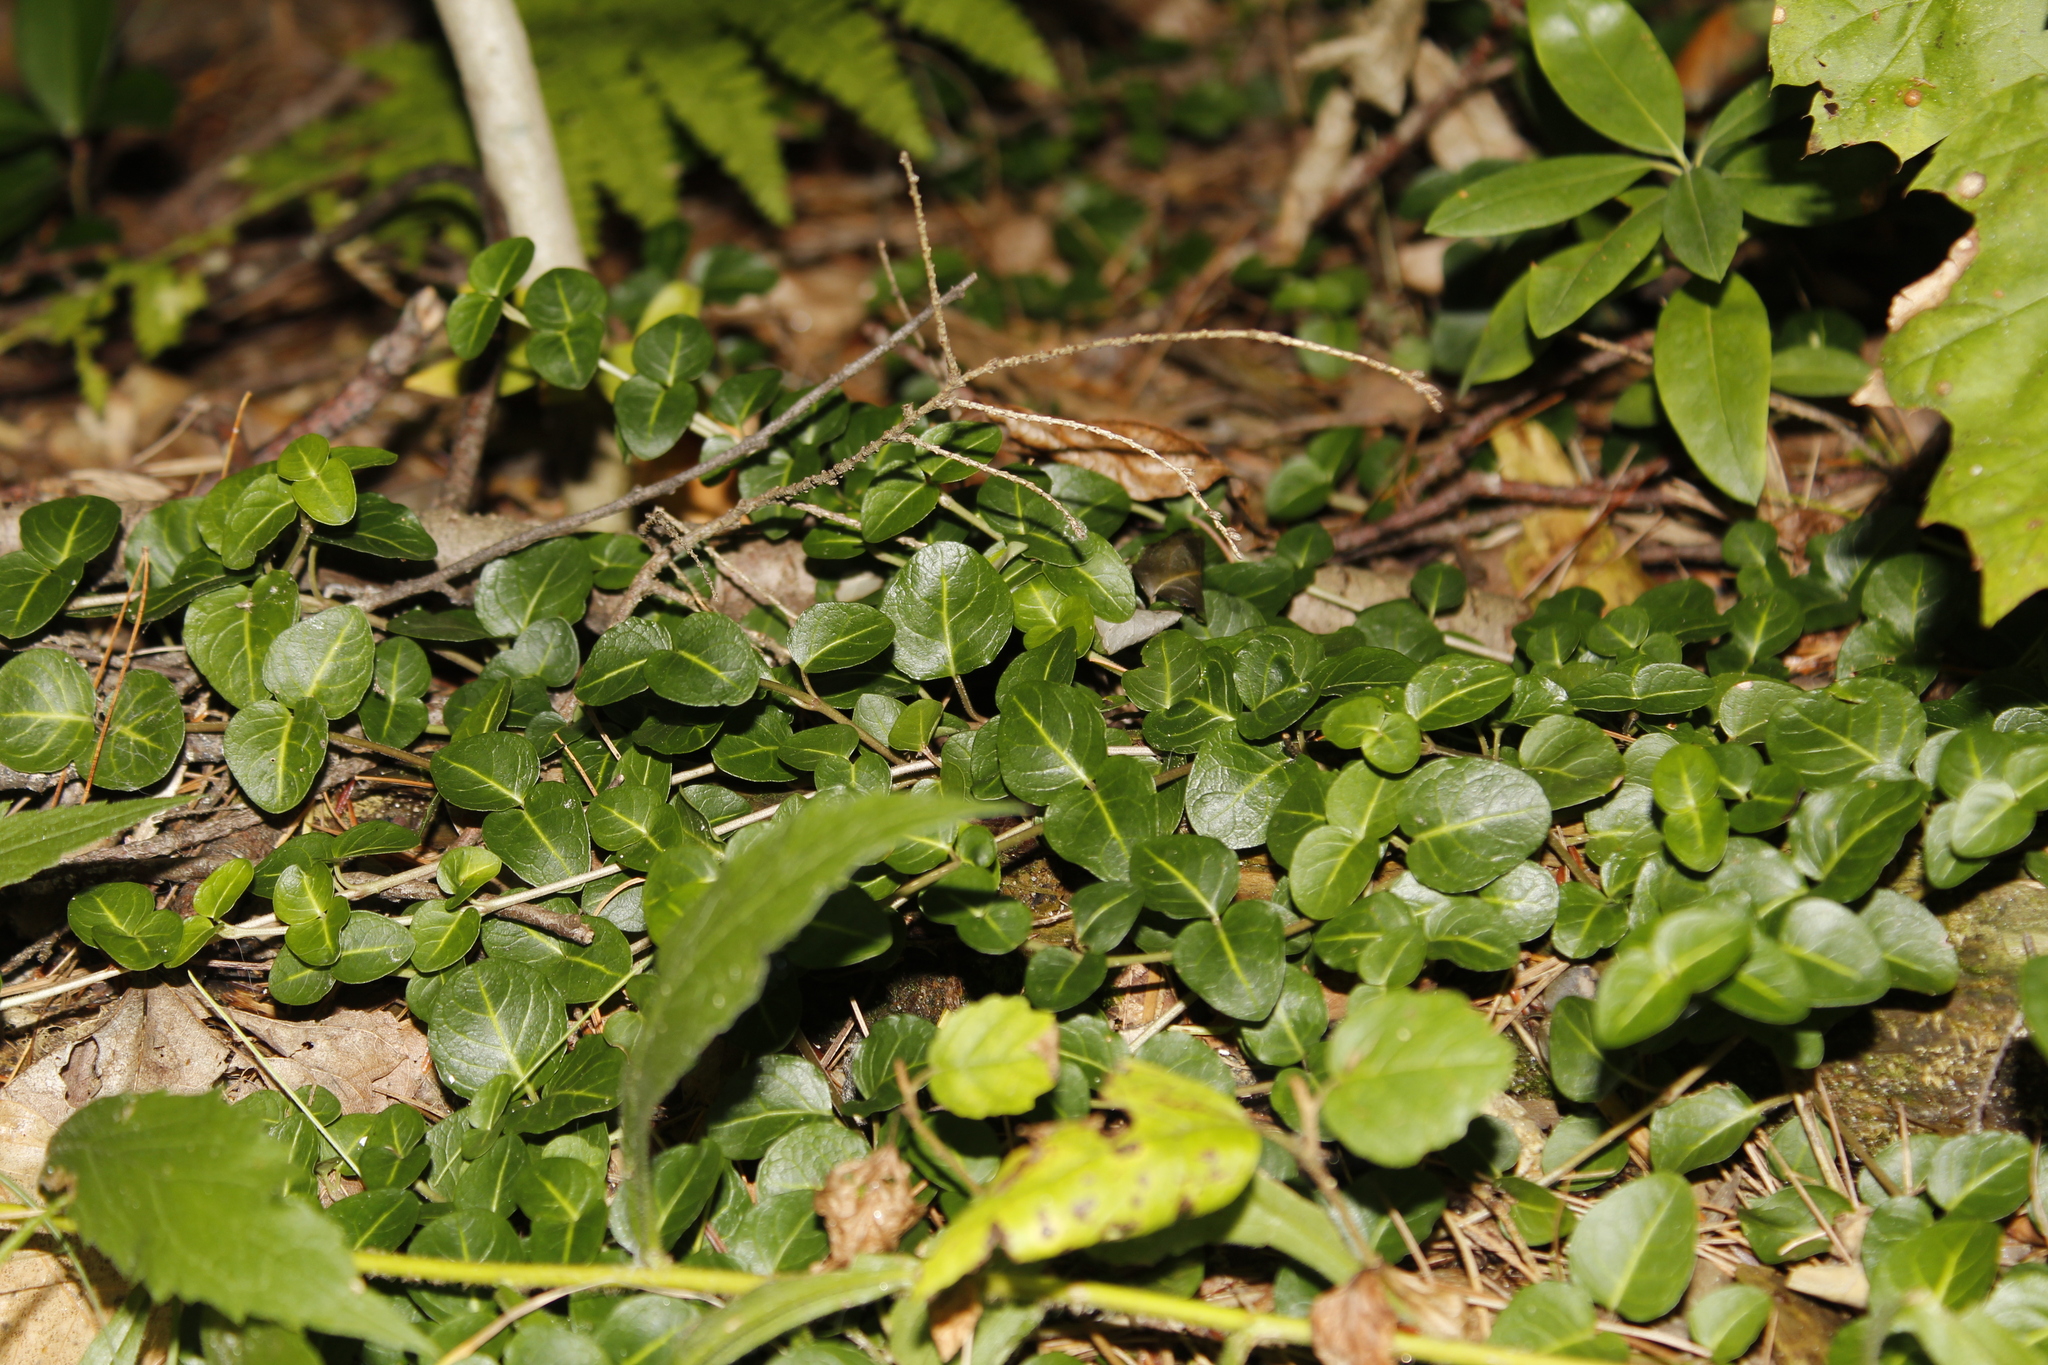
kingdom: Plantae
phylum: Tracheophyta
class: Magnoliopsida
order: Gentianales
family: Rubiaceae
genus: Mitchella
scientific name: Mitchella repens
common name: Partridge-berry
